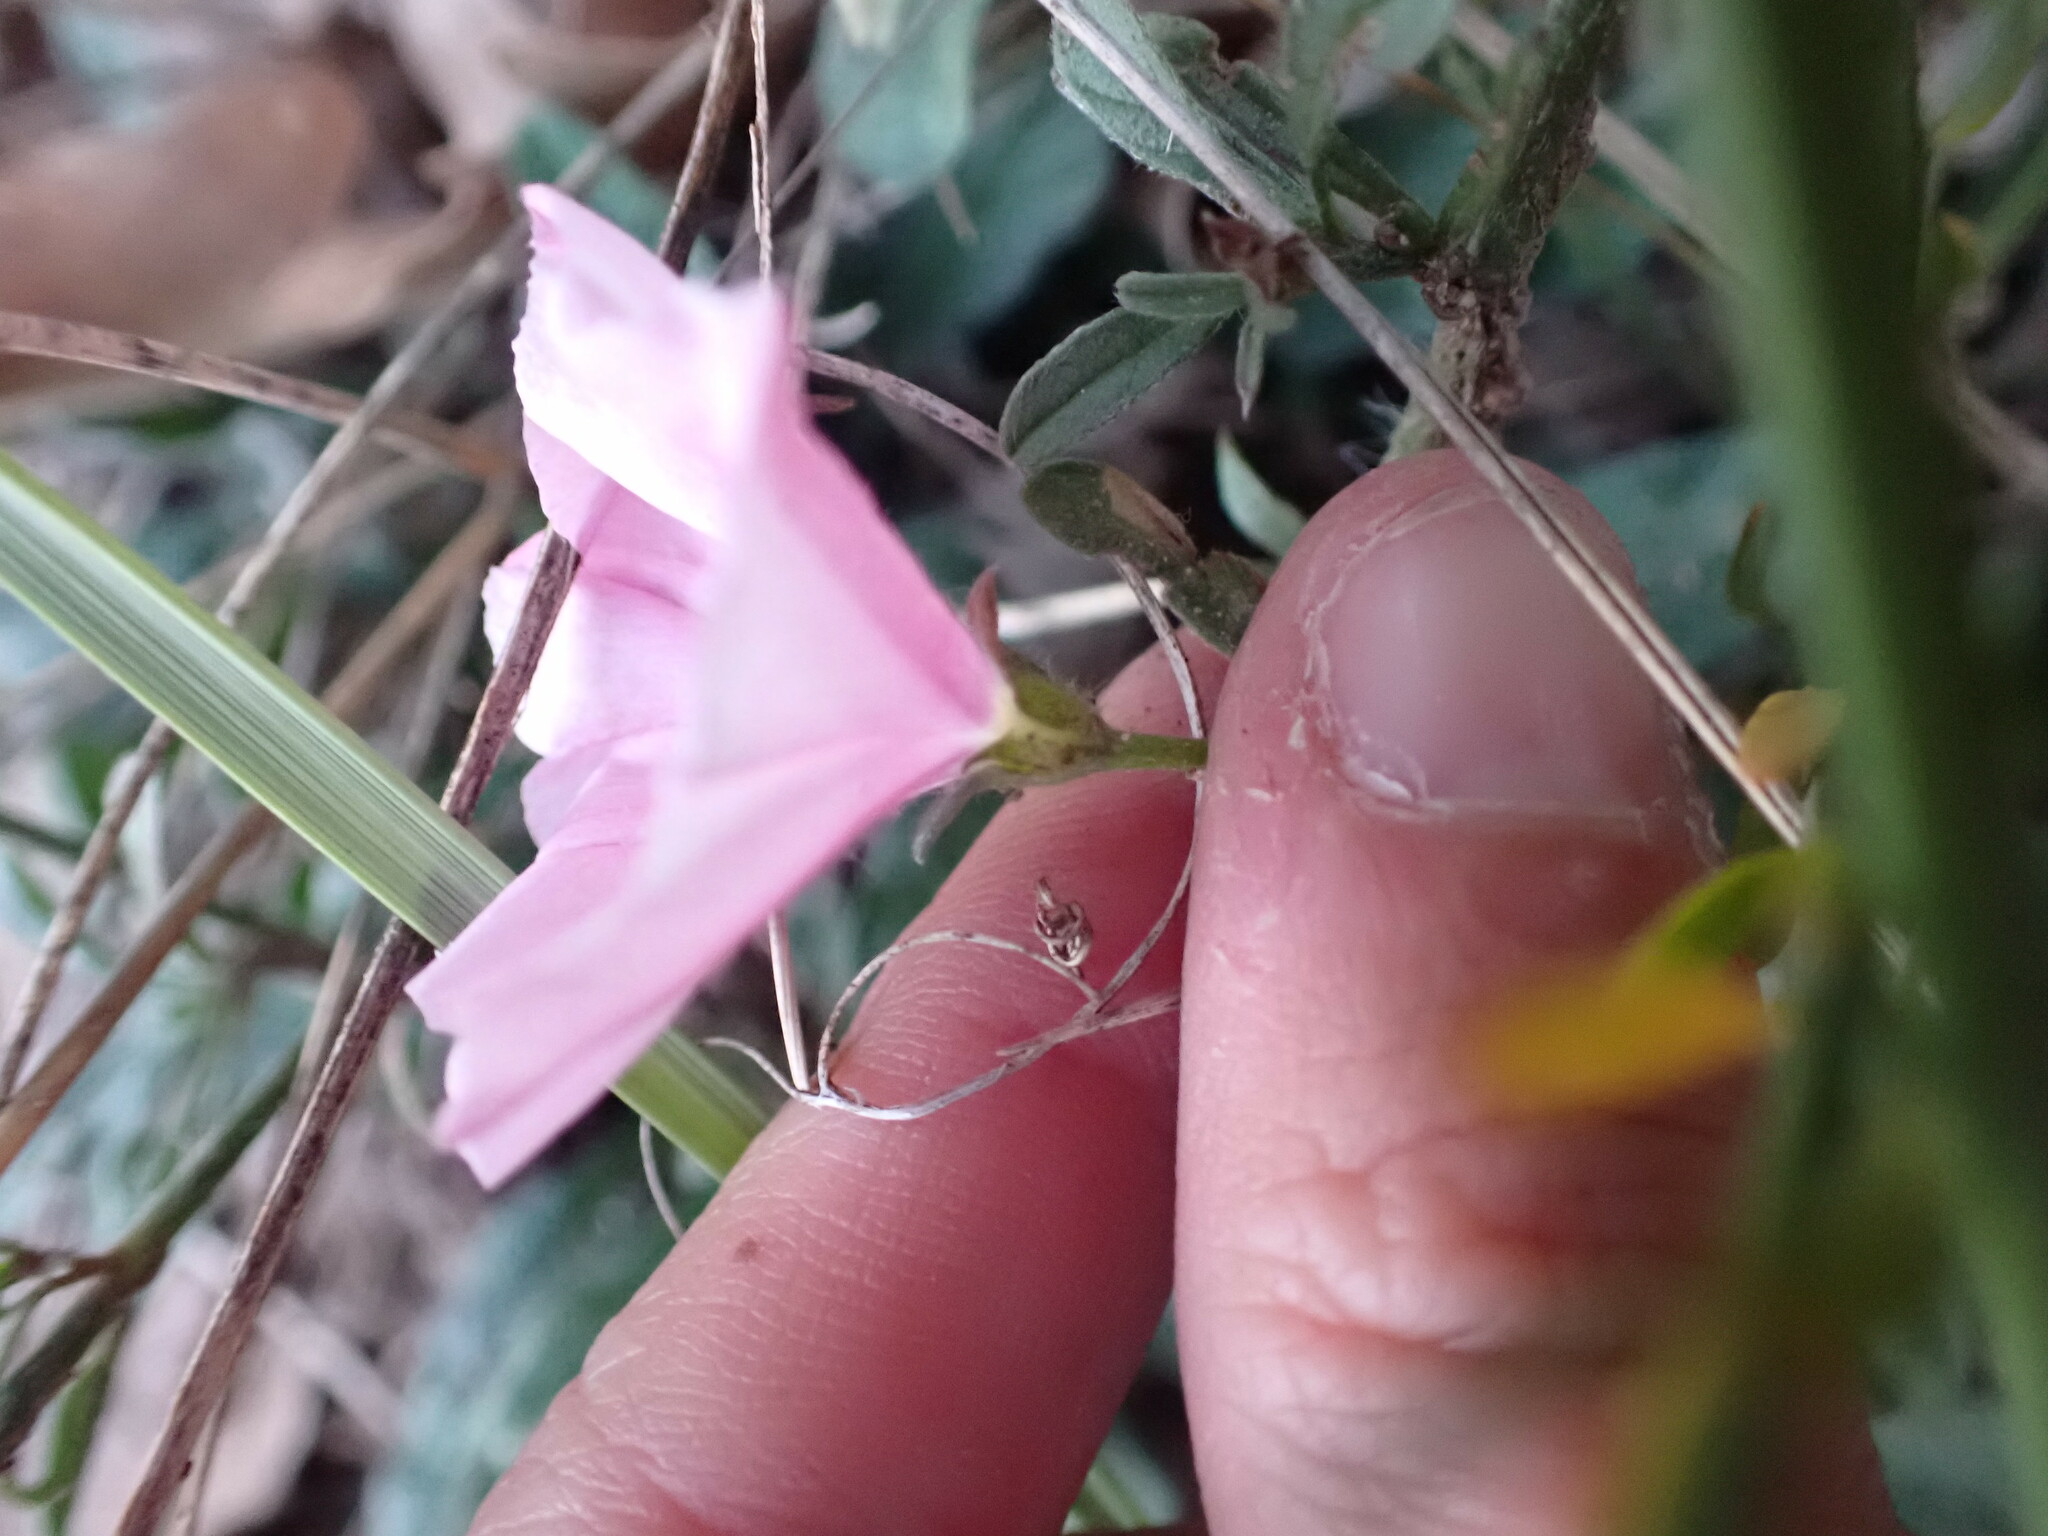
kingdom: Plantae
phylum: Tracheophyta
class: Magnoliopsida
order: Solanales
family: Convolvulaceae
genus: Convolvulus
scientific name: Convolvulus cantabrica
